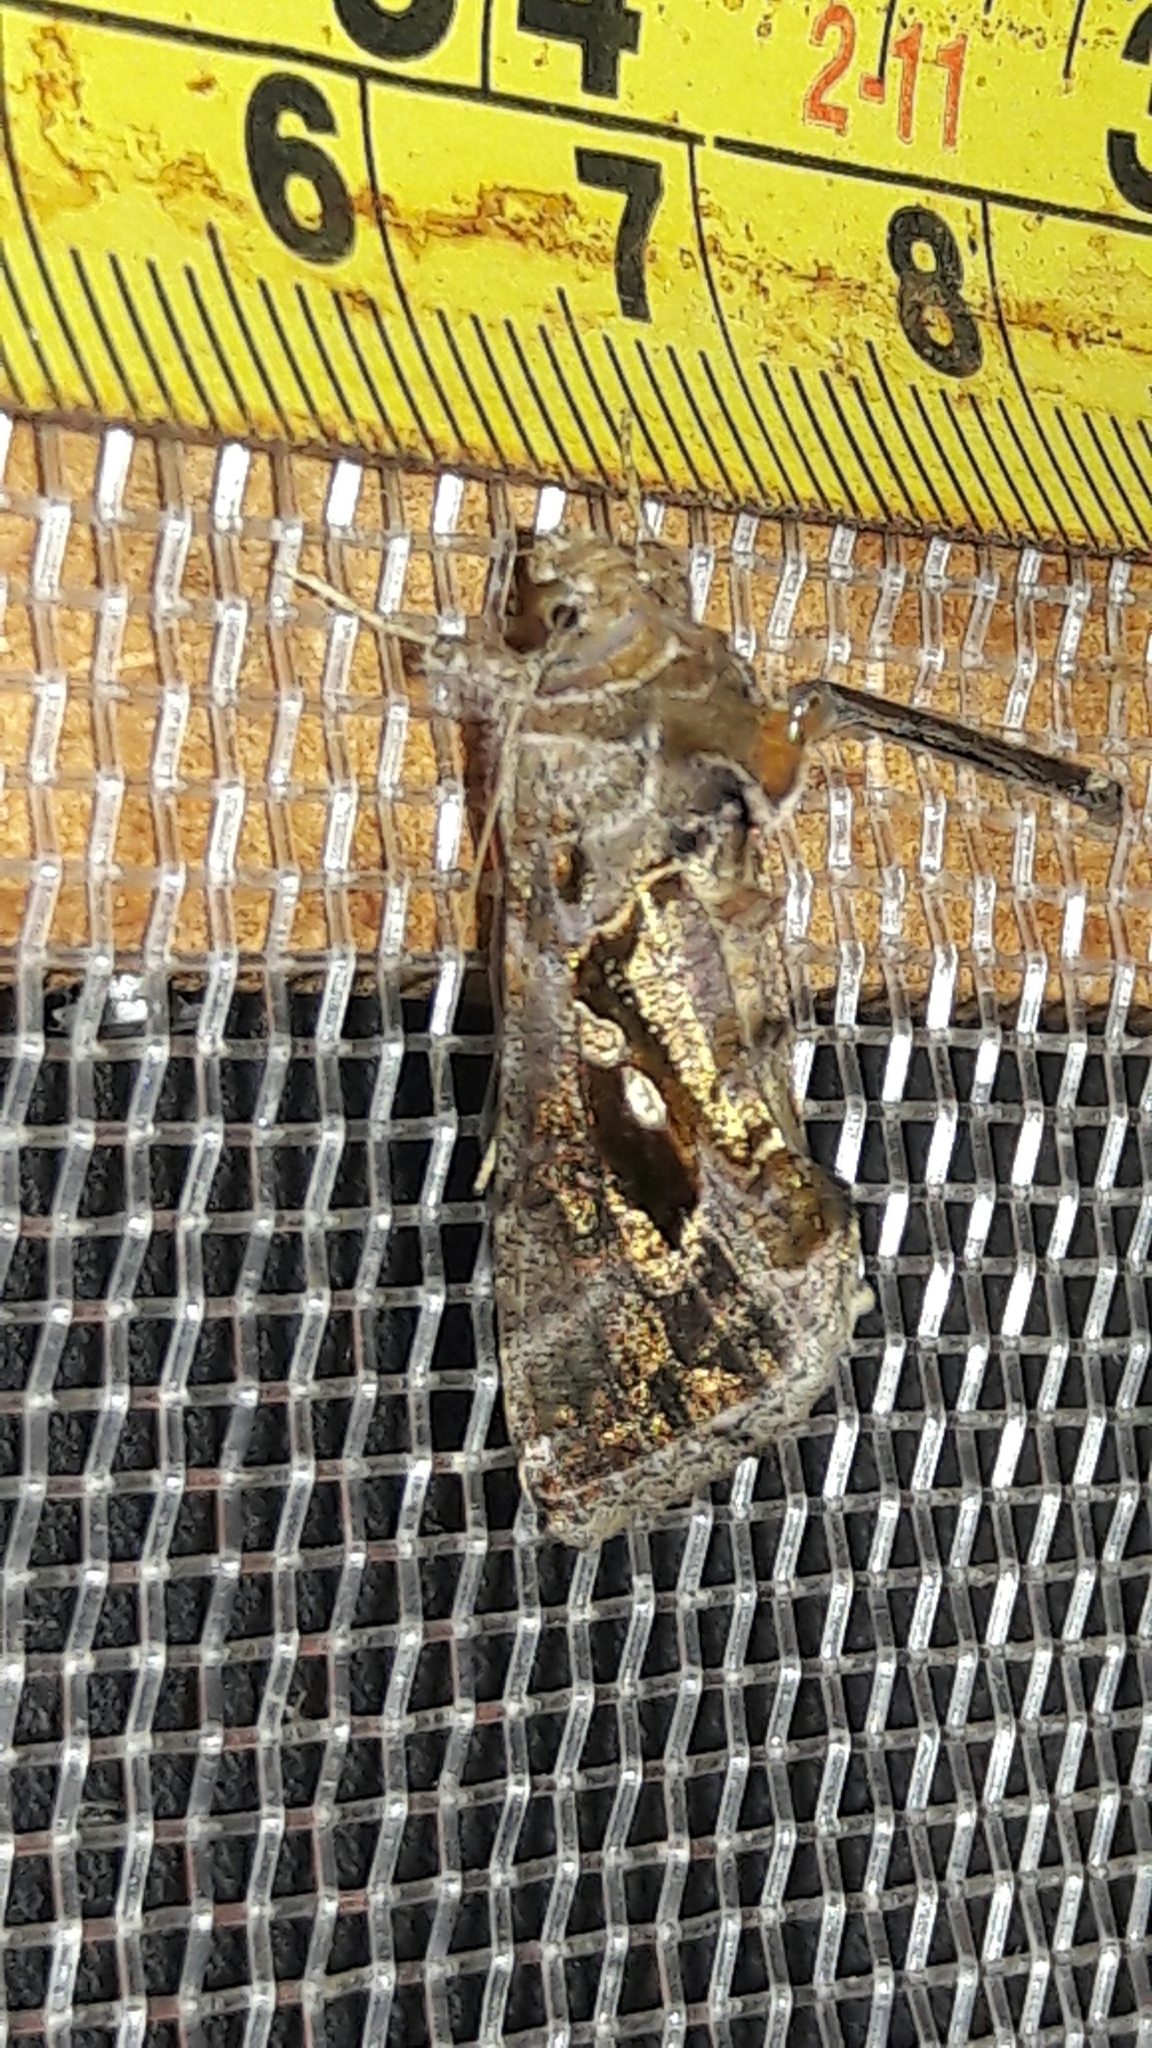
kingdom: Animalia
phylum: Arthropoda
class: Insecta
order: Lepidoptera
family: Noctuidae
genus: Chrysodeixis
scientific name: Chrysodeixis includens
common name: Cutworm moth
